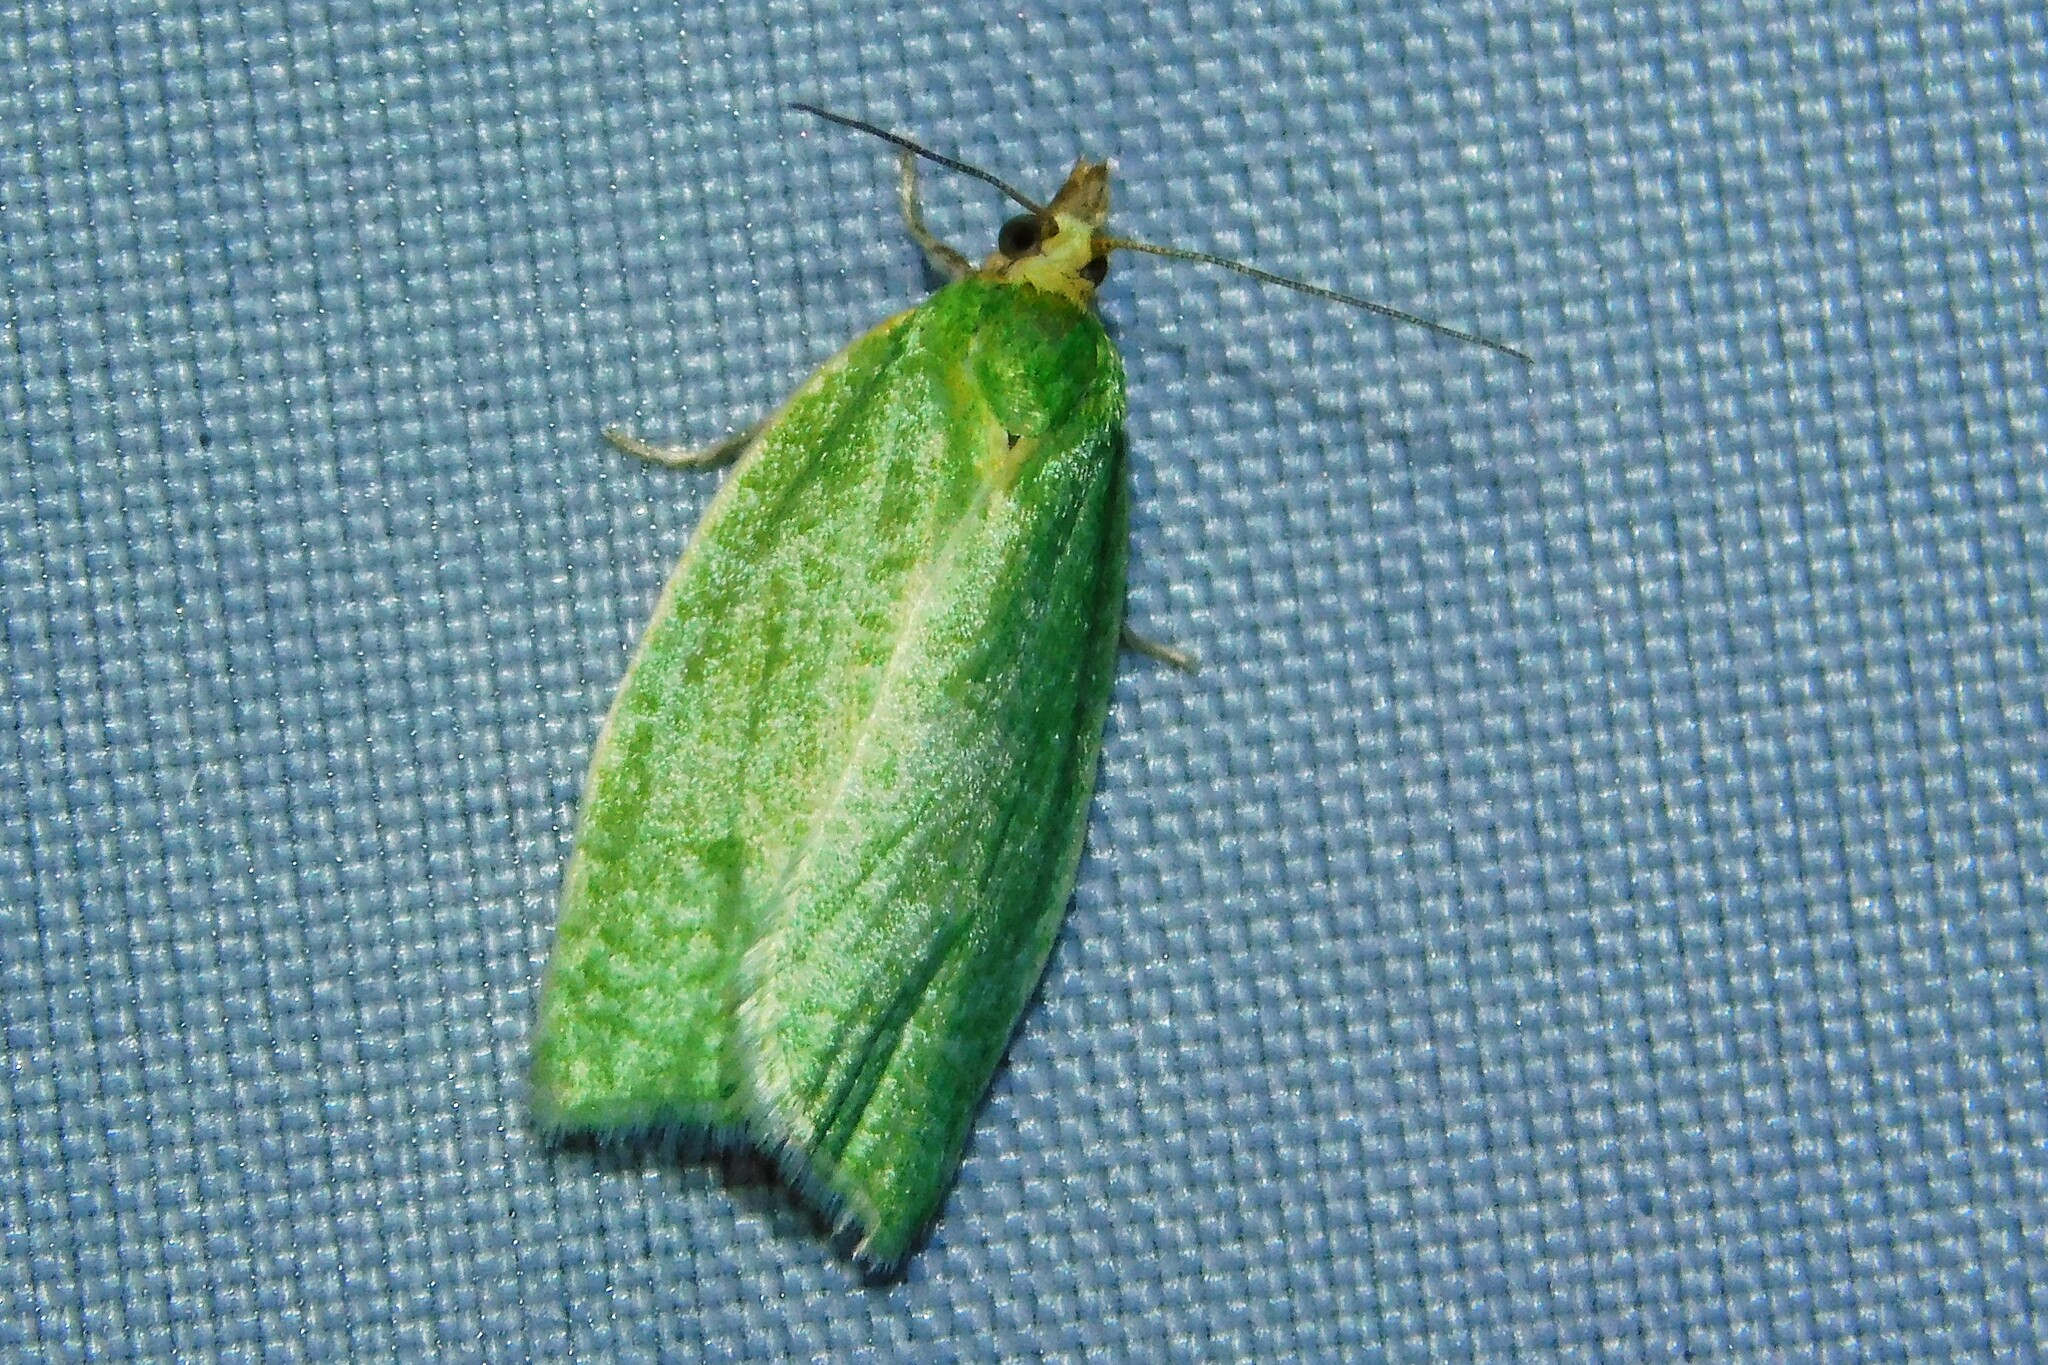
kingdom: Animalia
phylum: Arthropoda
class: Insecta
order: Lepidoptera
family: Tortricidae
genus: Tortrix
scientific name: Tortrix viridana
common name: Green oak tortrix
